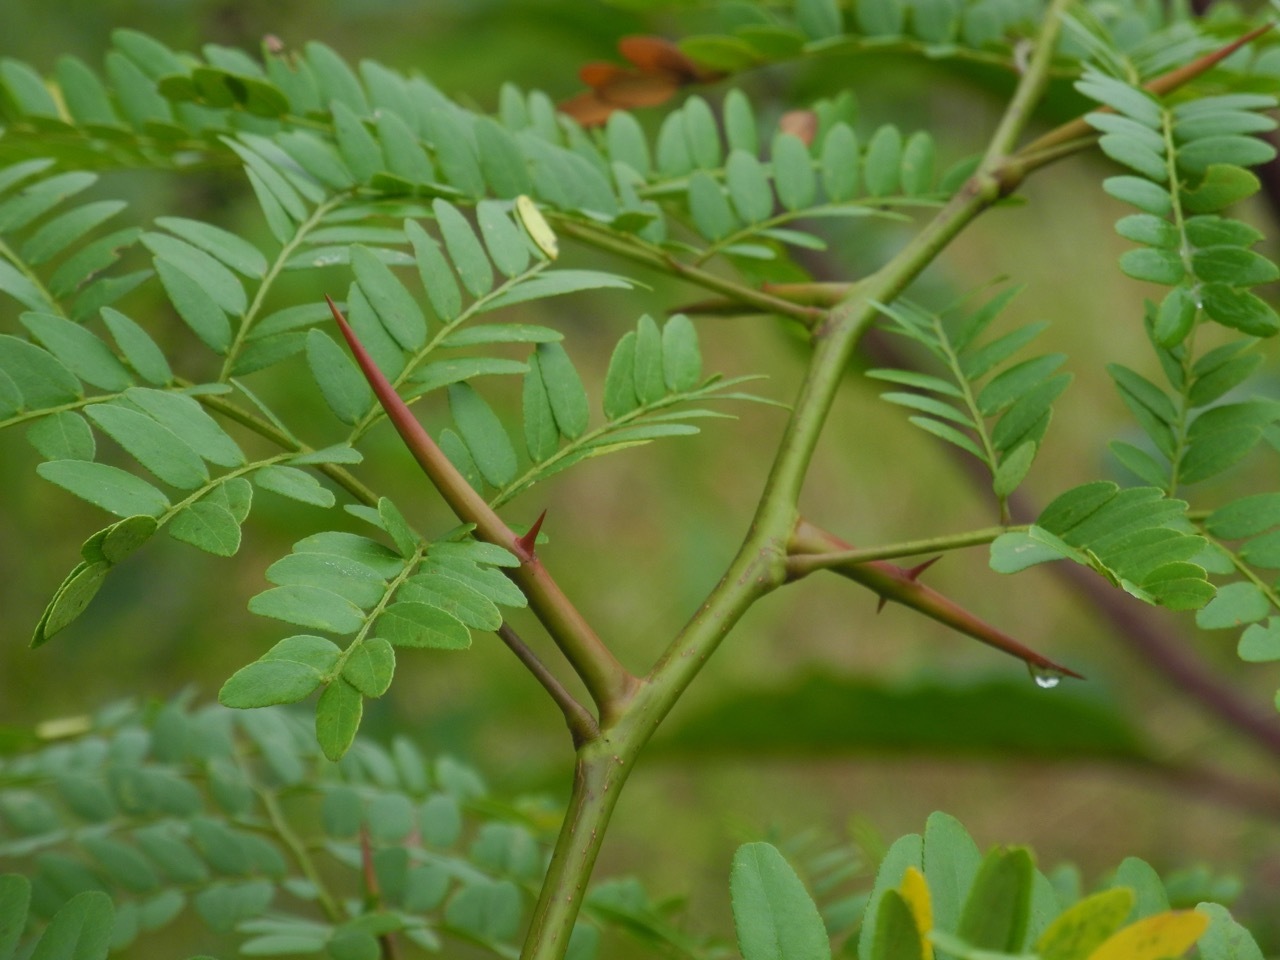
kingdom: Plantae
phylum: Tracheophyta
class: Magnoliopsida
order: Fabales
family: Fabaceae
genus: Gleditsia
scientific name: Gleditsia triacanthos
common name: Common honeylocust
